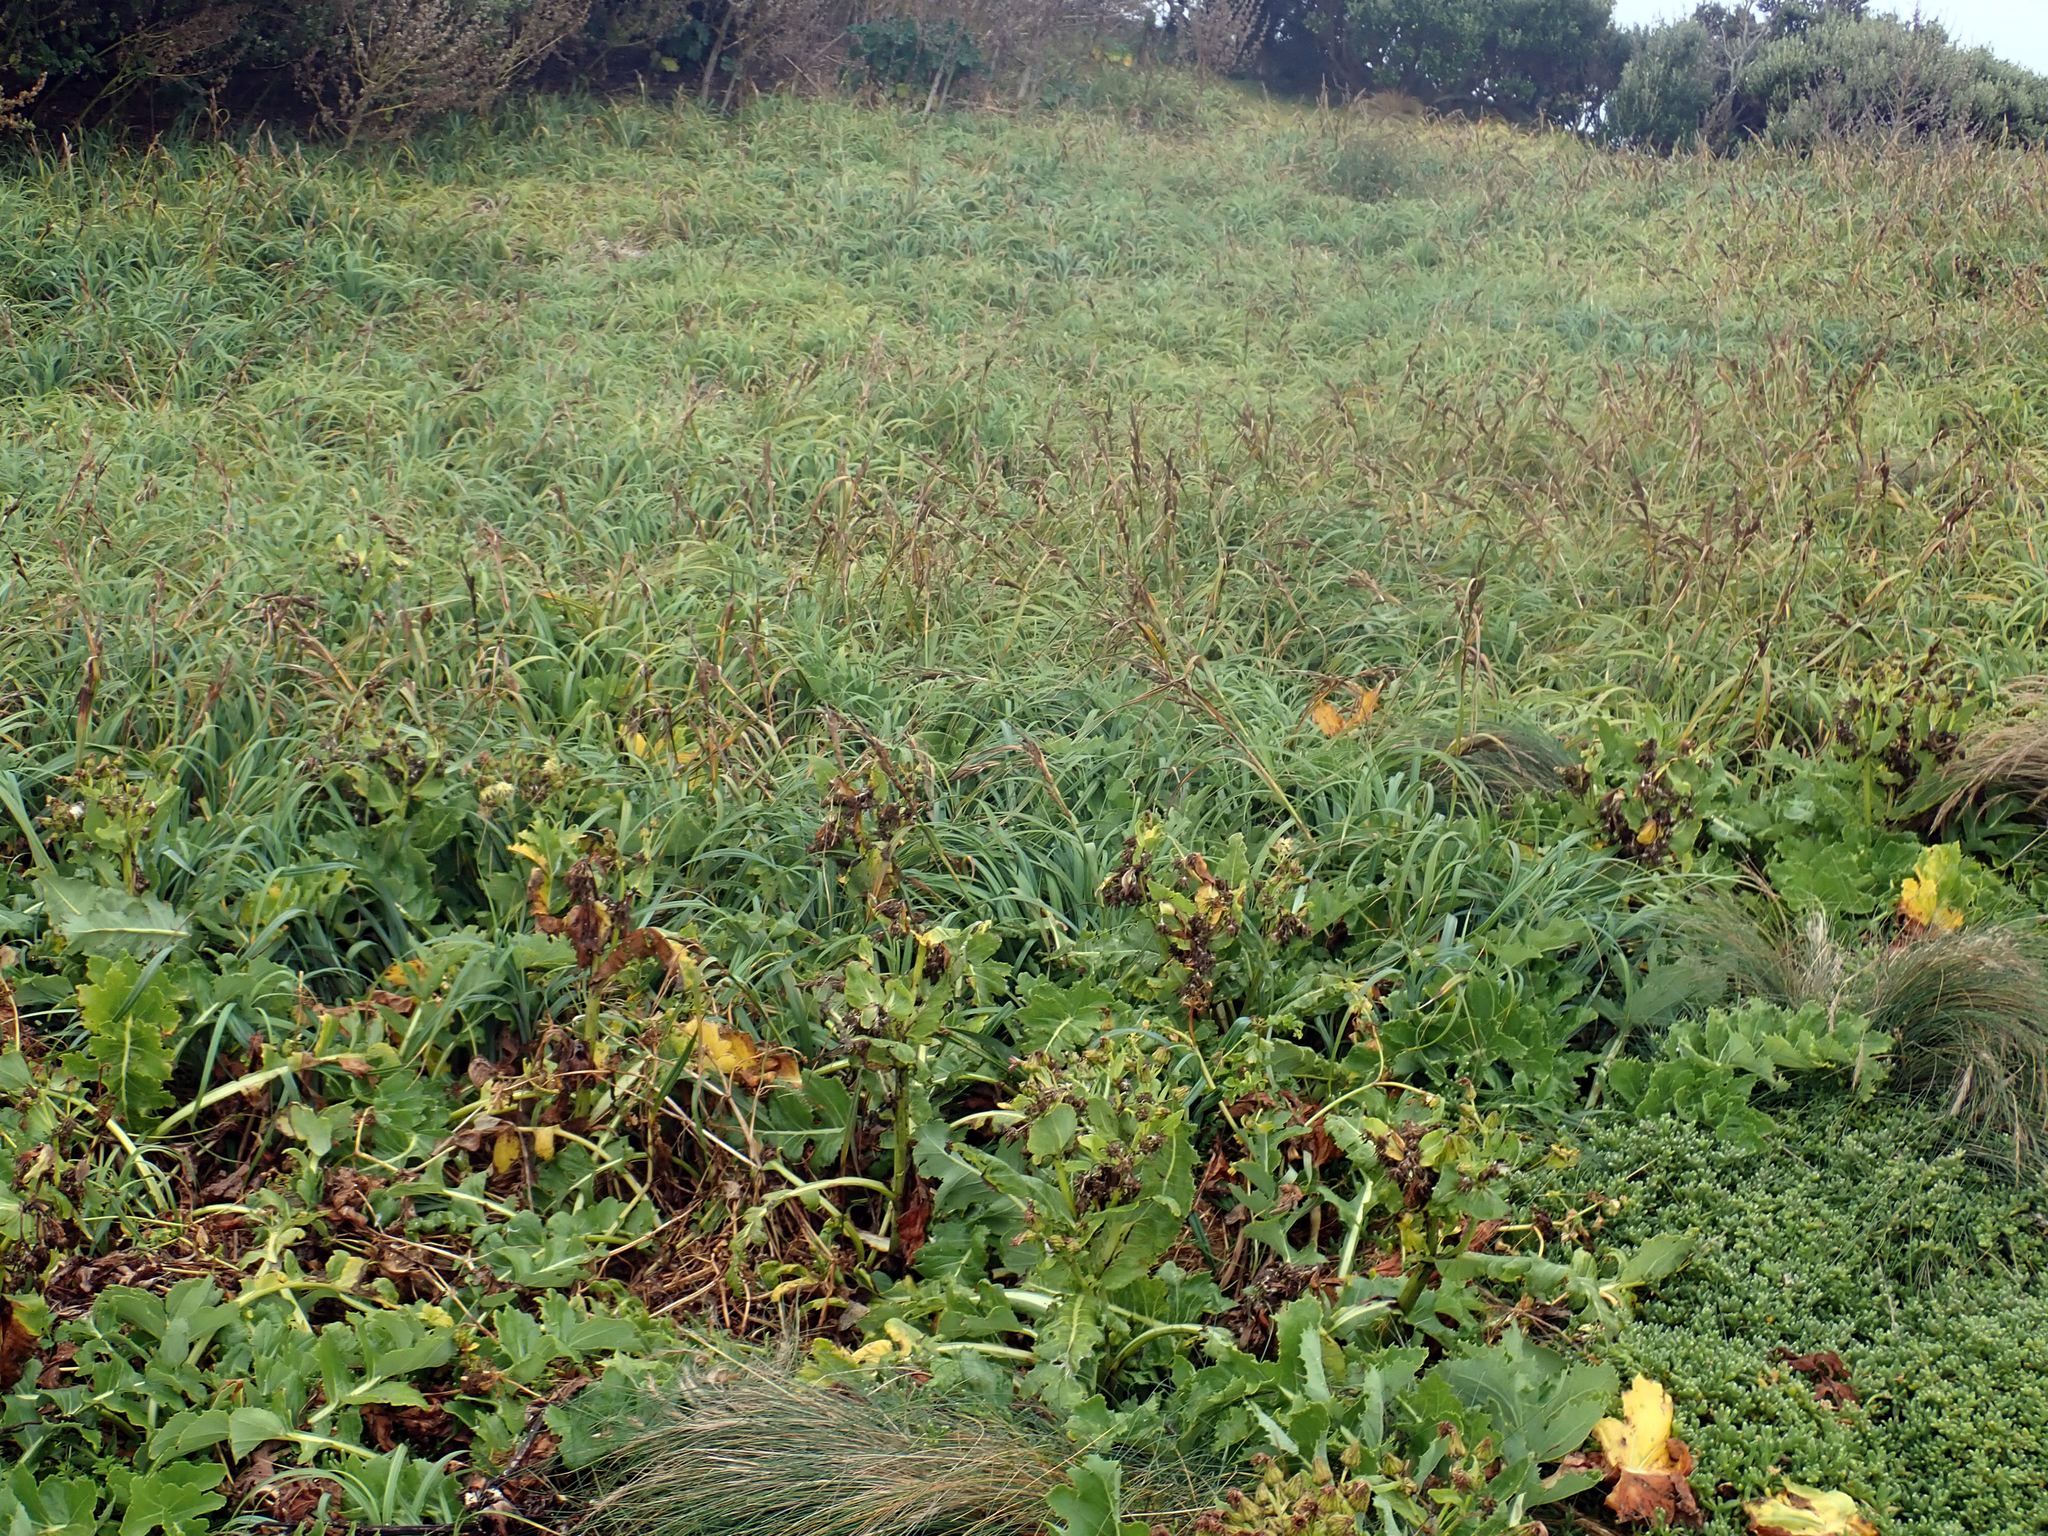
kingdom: Plantae
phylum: Tracheophyta
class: Magnoliopsida
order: Asterales
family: Asteraceae
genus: Sonchus
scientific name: Sonchus grandifolius
